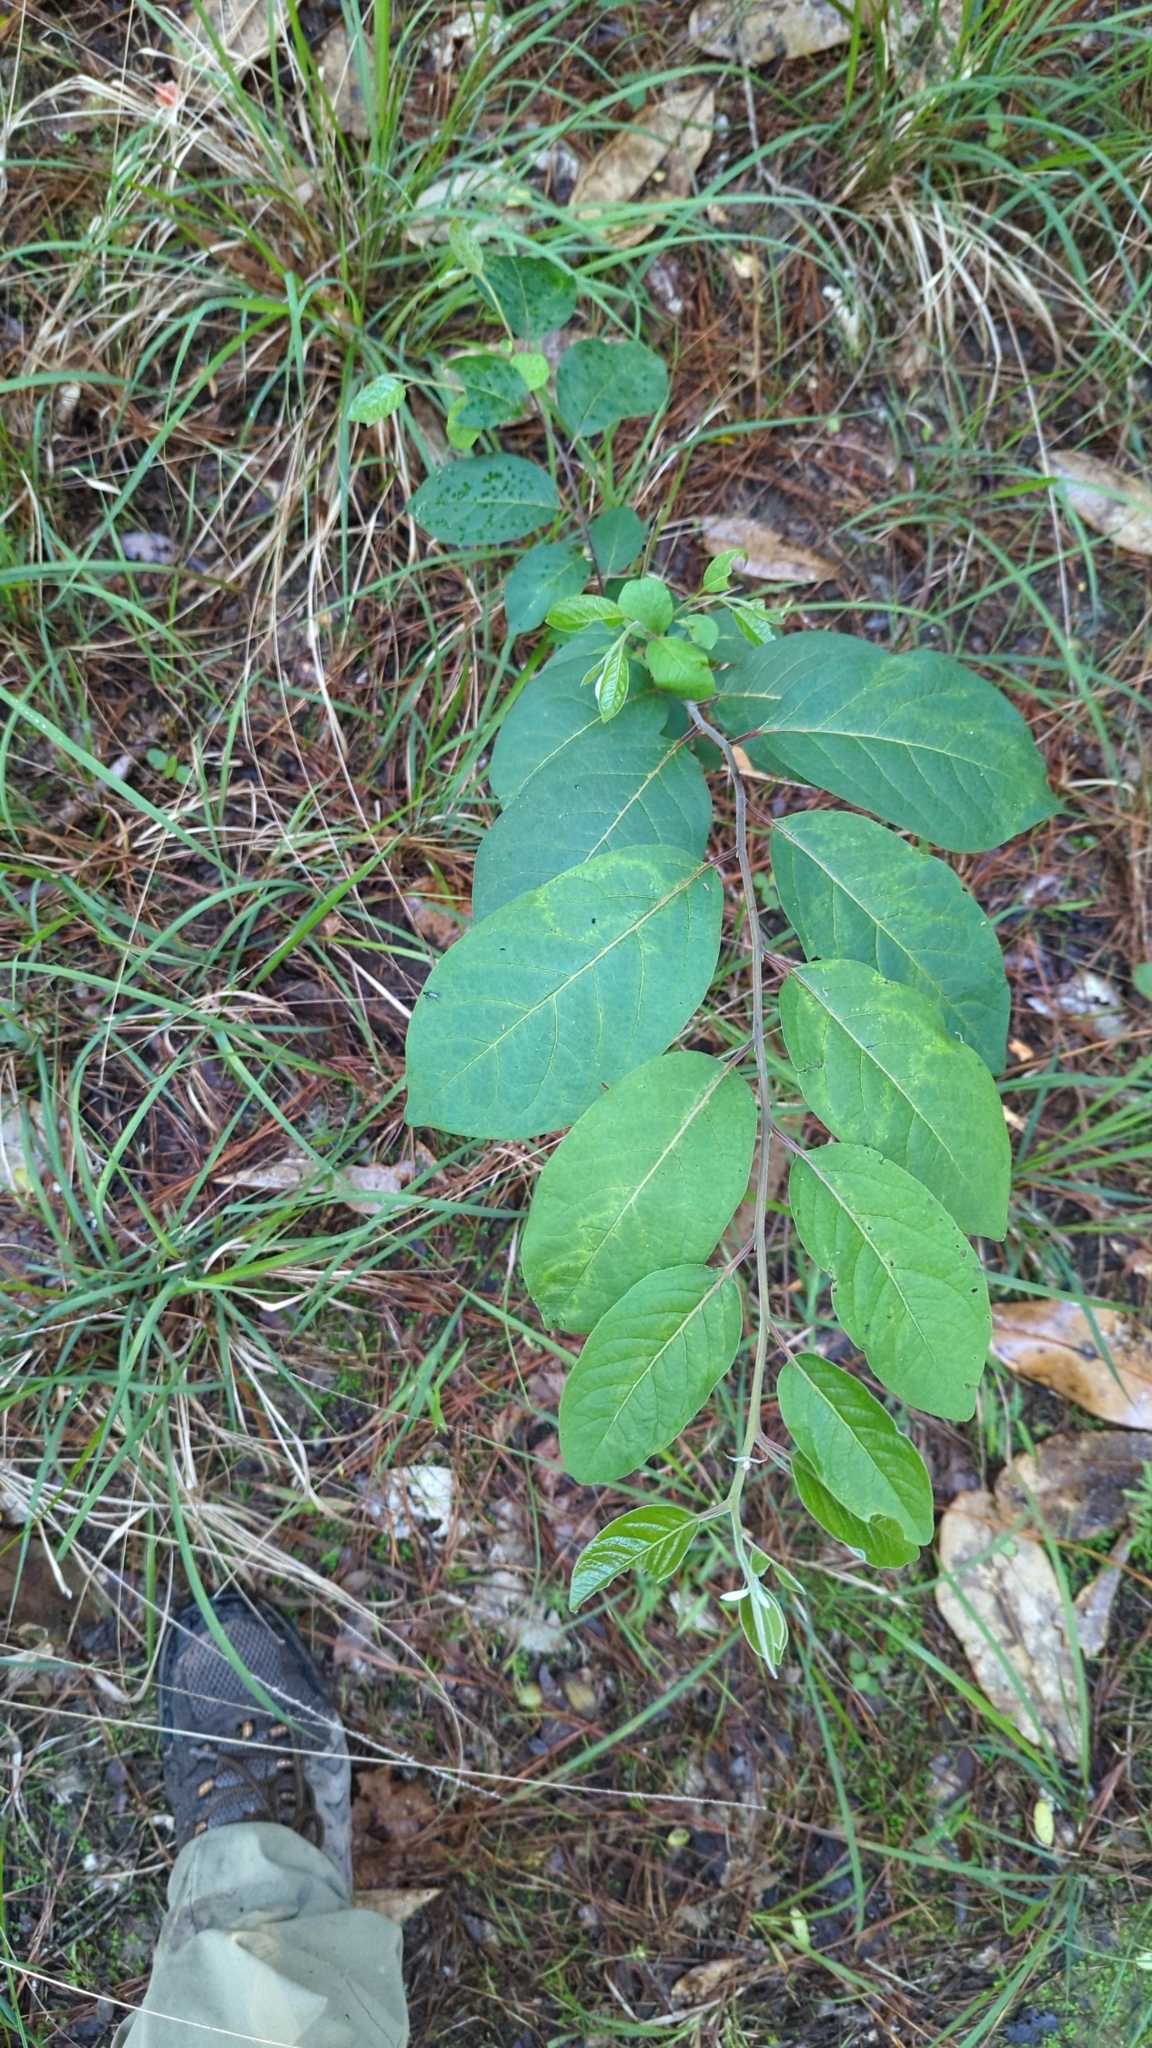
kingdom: Plantae
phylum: Tracheophyta
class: Magnoliopsida
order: Ericales
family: Ebenaceae
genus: Diospyros
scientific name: Diospyros virginiana
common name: Persimmon
